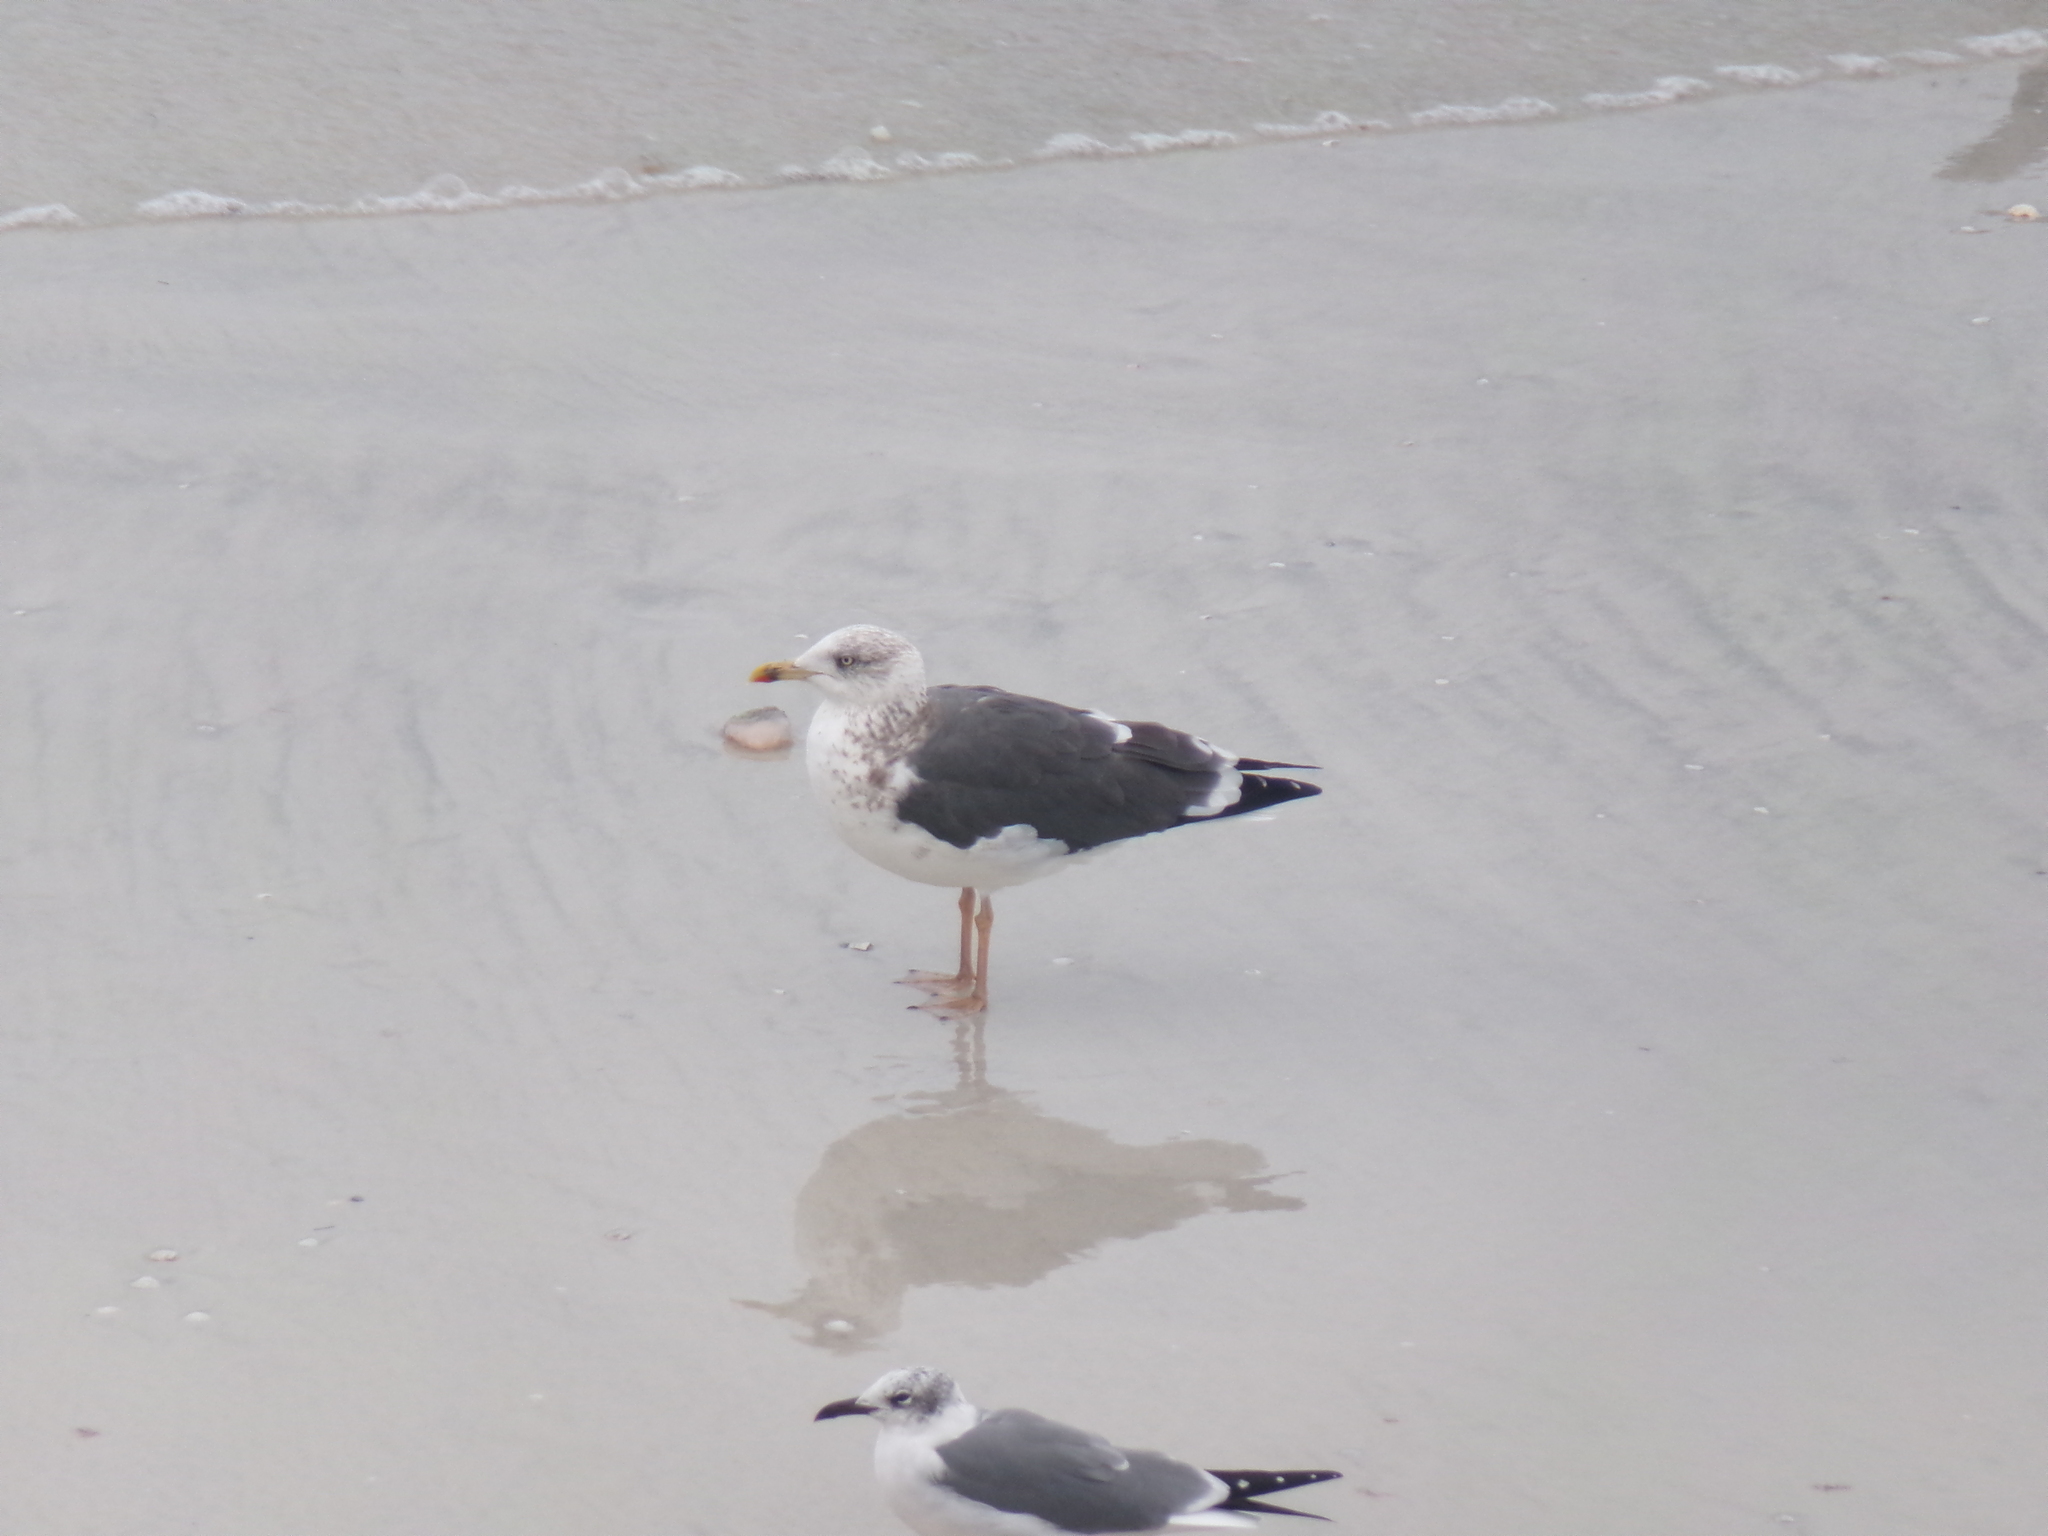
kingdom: Animalia
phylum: Chordata
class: Aves
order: Charadriiformes
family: Laridae
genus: Larus
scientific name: Larus fuscus
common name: Lesser black-backed gull
